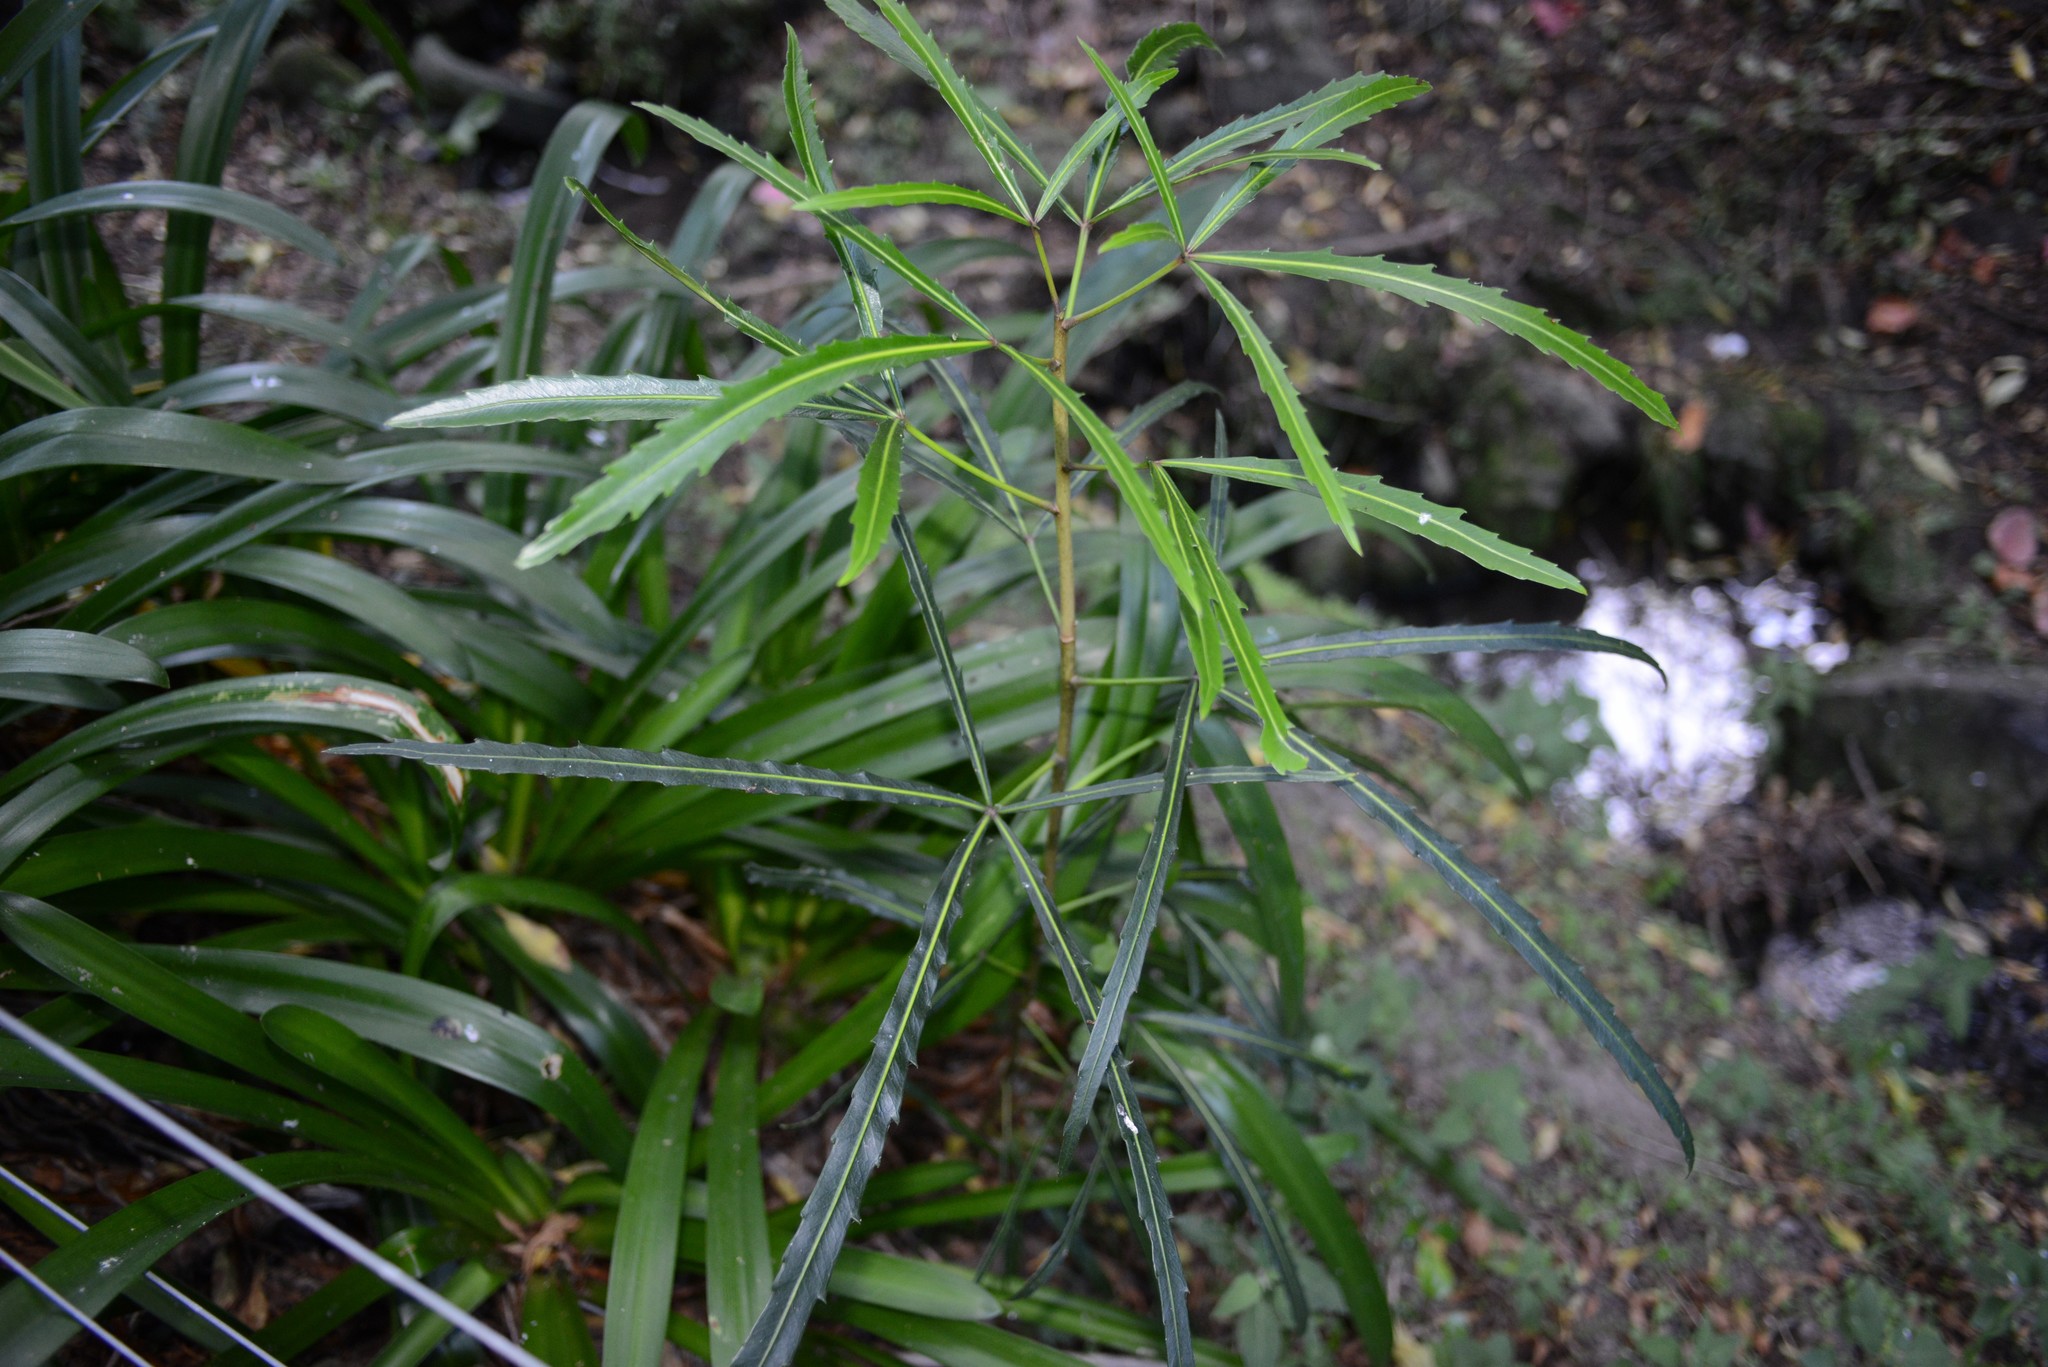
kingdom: Plantae
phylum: Tracheophyta
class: Magnoliopsida
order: Apiales
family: Araliaceae
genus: Pseudopanax
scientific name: Pseudopanax
